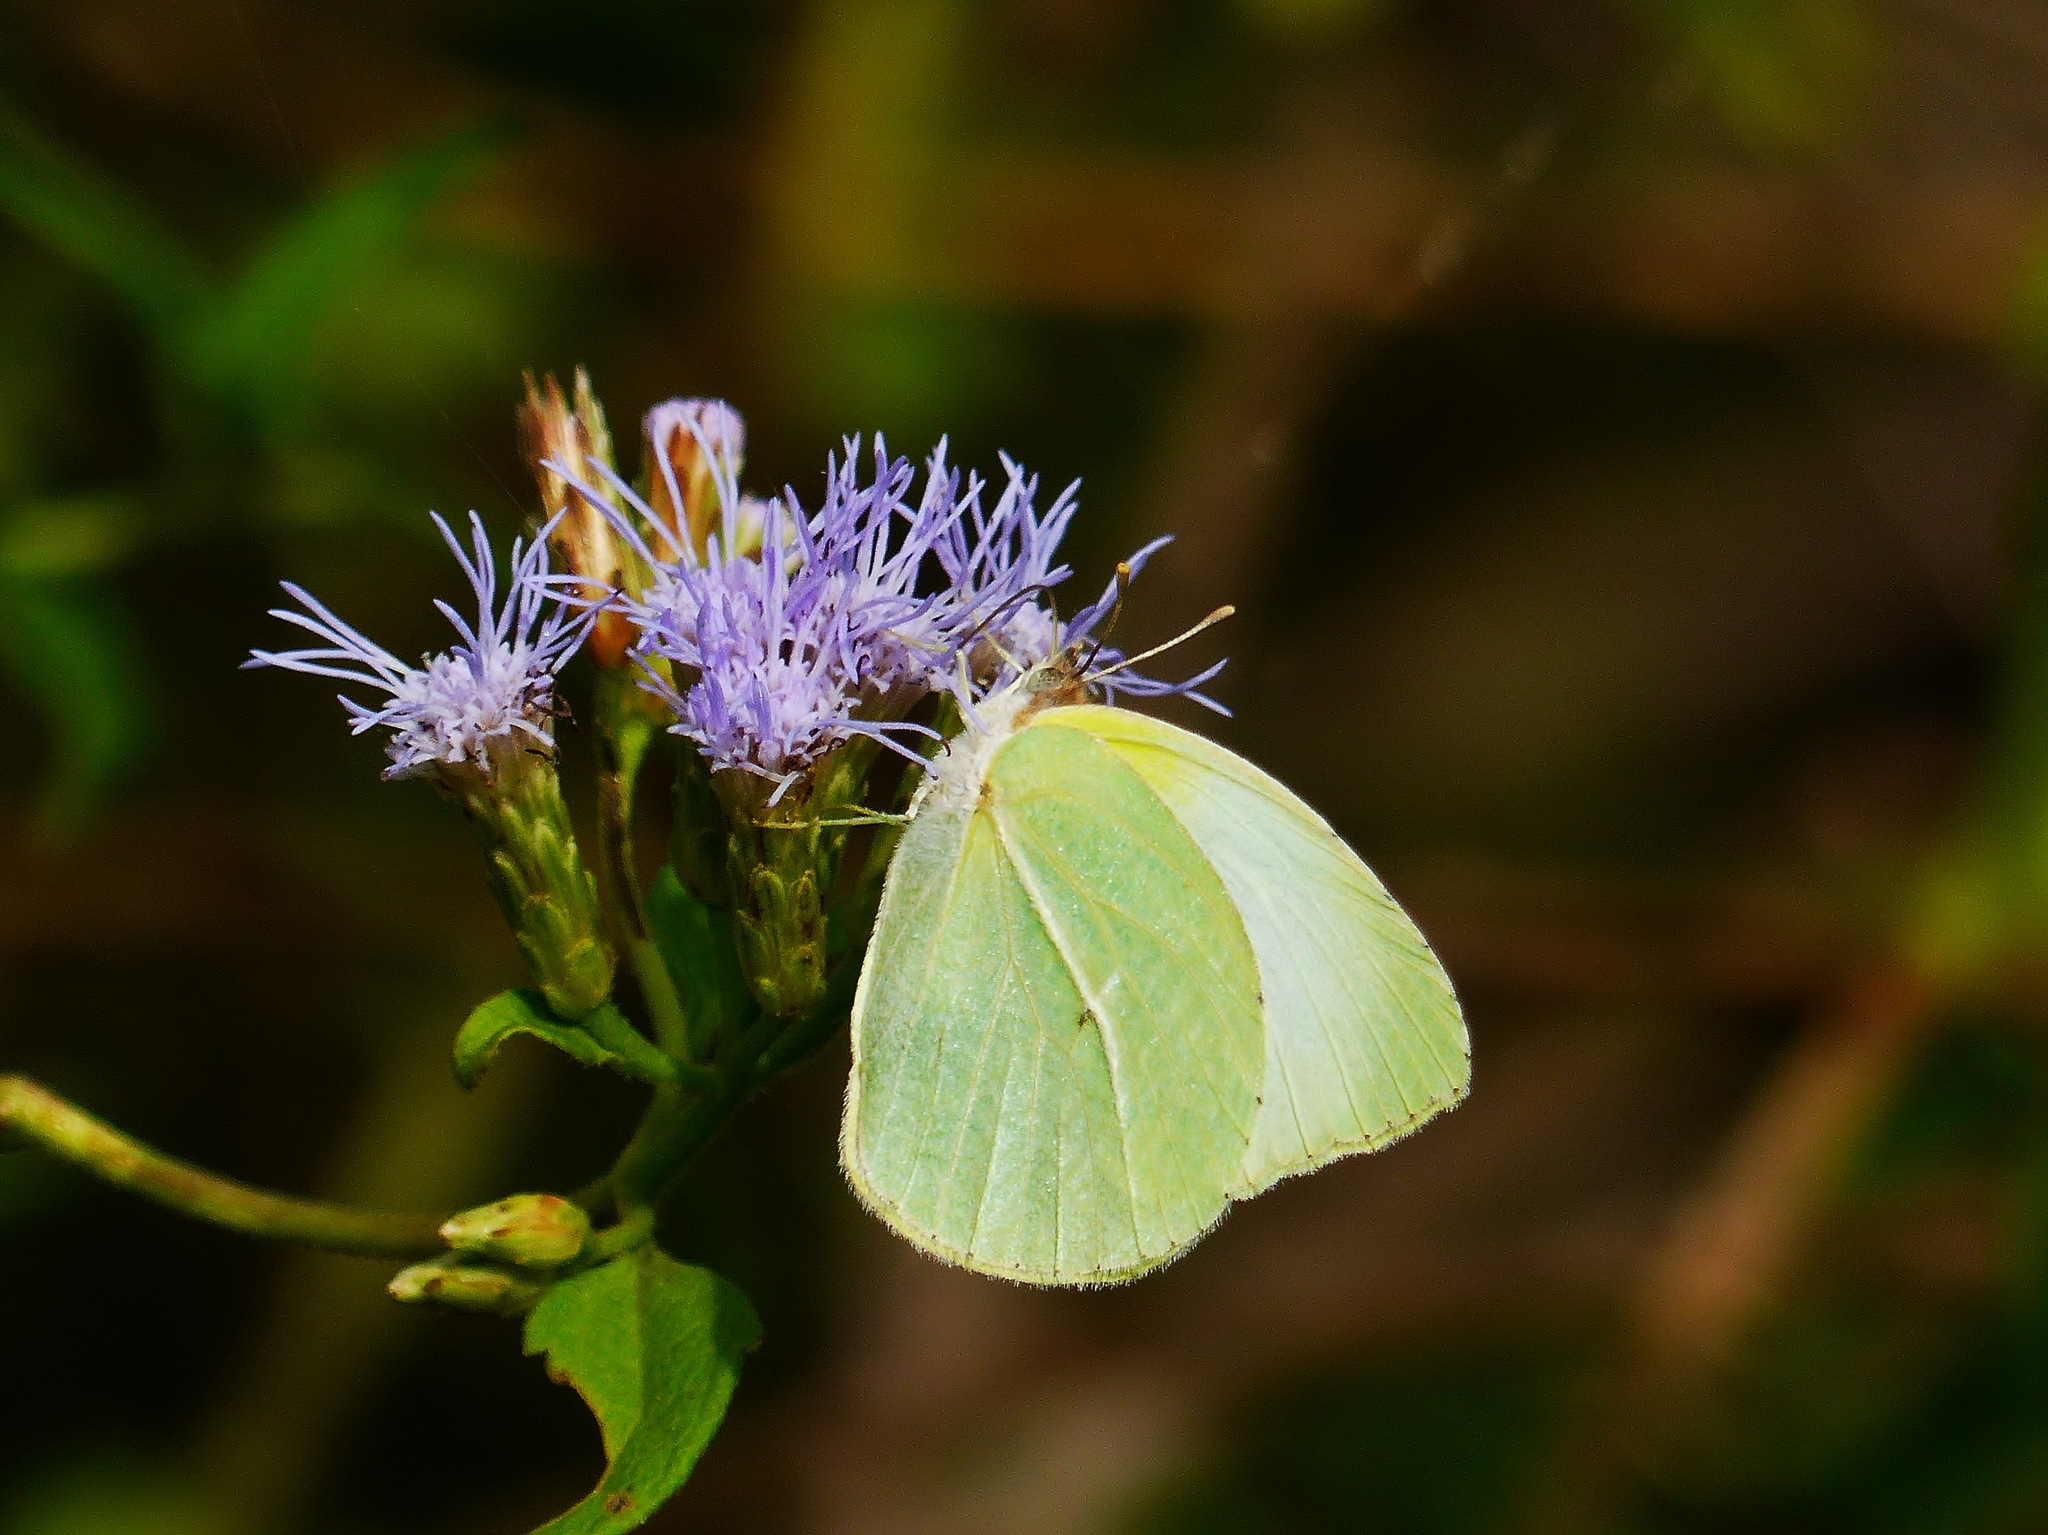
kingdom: Animalia
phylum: Arthropoda
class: Insecta
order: Lepidoptera
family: Pieridae
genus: Kricogonia
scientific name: Kricogonia lyside
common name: Guayacan sulphur,
